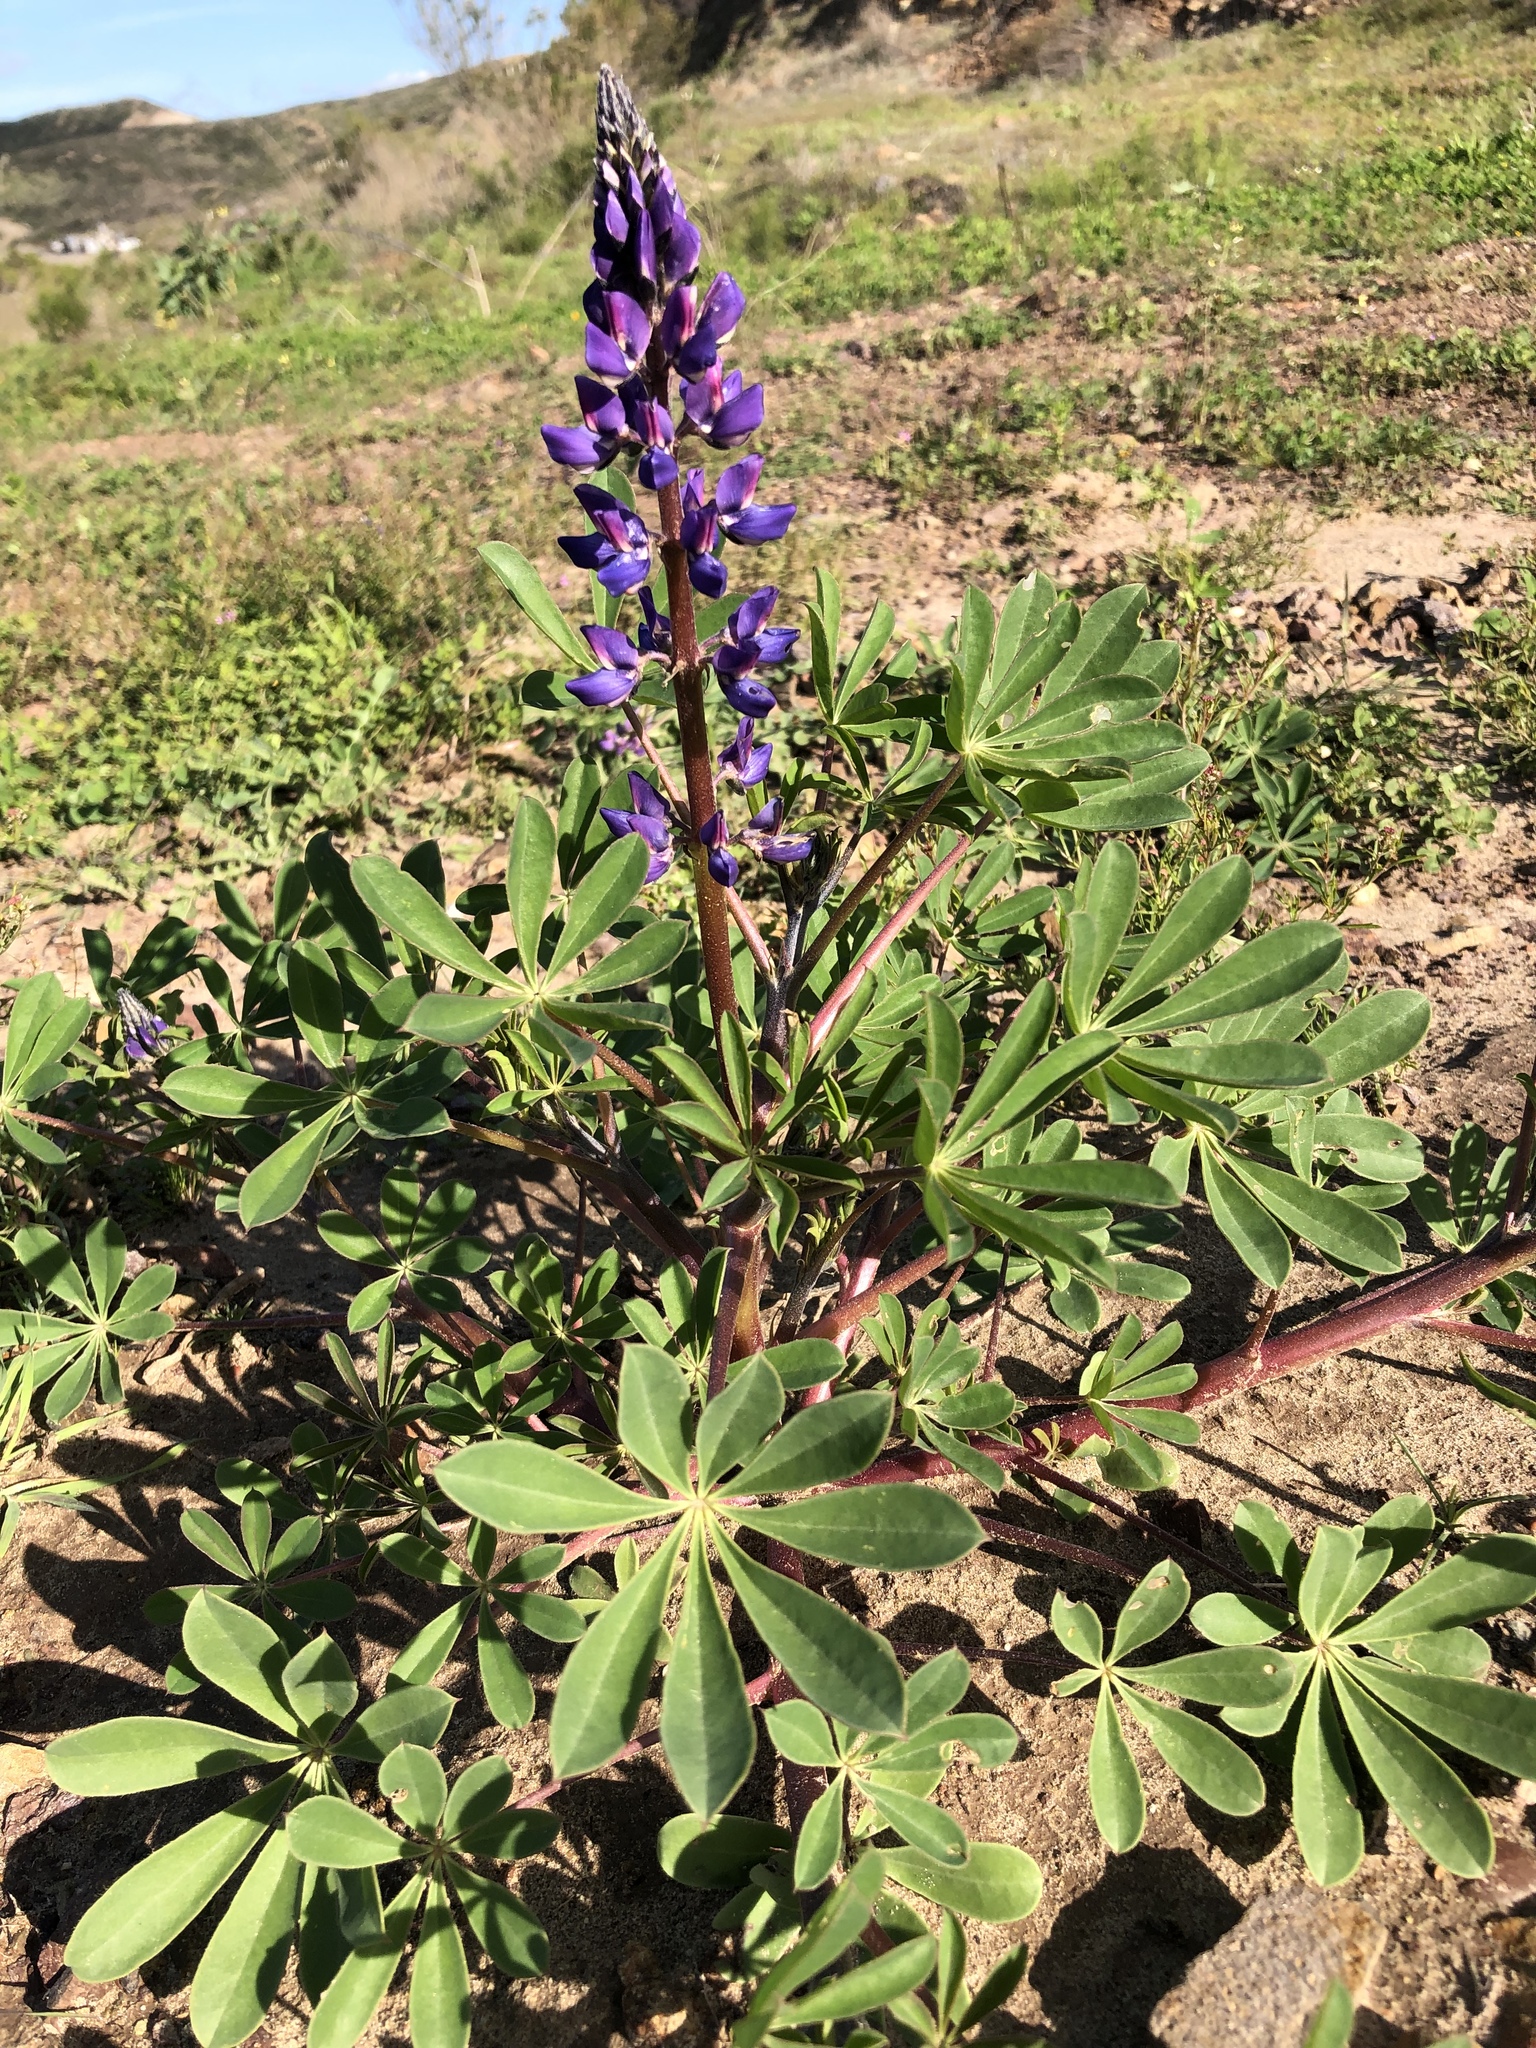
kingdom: Plantae
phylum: Tracheophyta
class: Magnoliopsida
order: Fabales
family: Fabaceae
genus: Lupinus
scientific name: Lupinus succulentus
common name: Arroyo lupine
